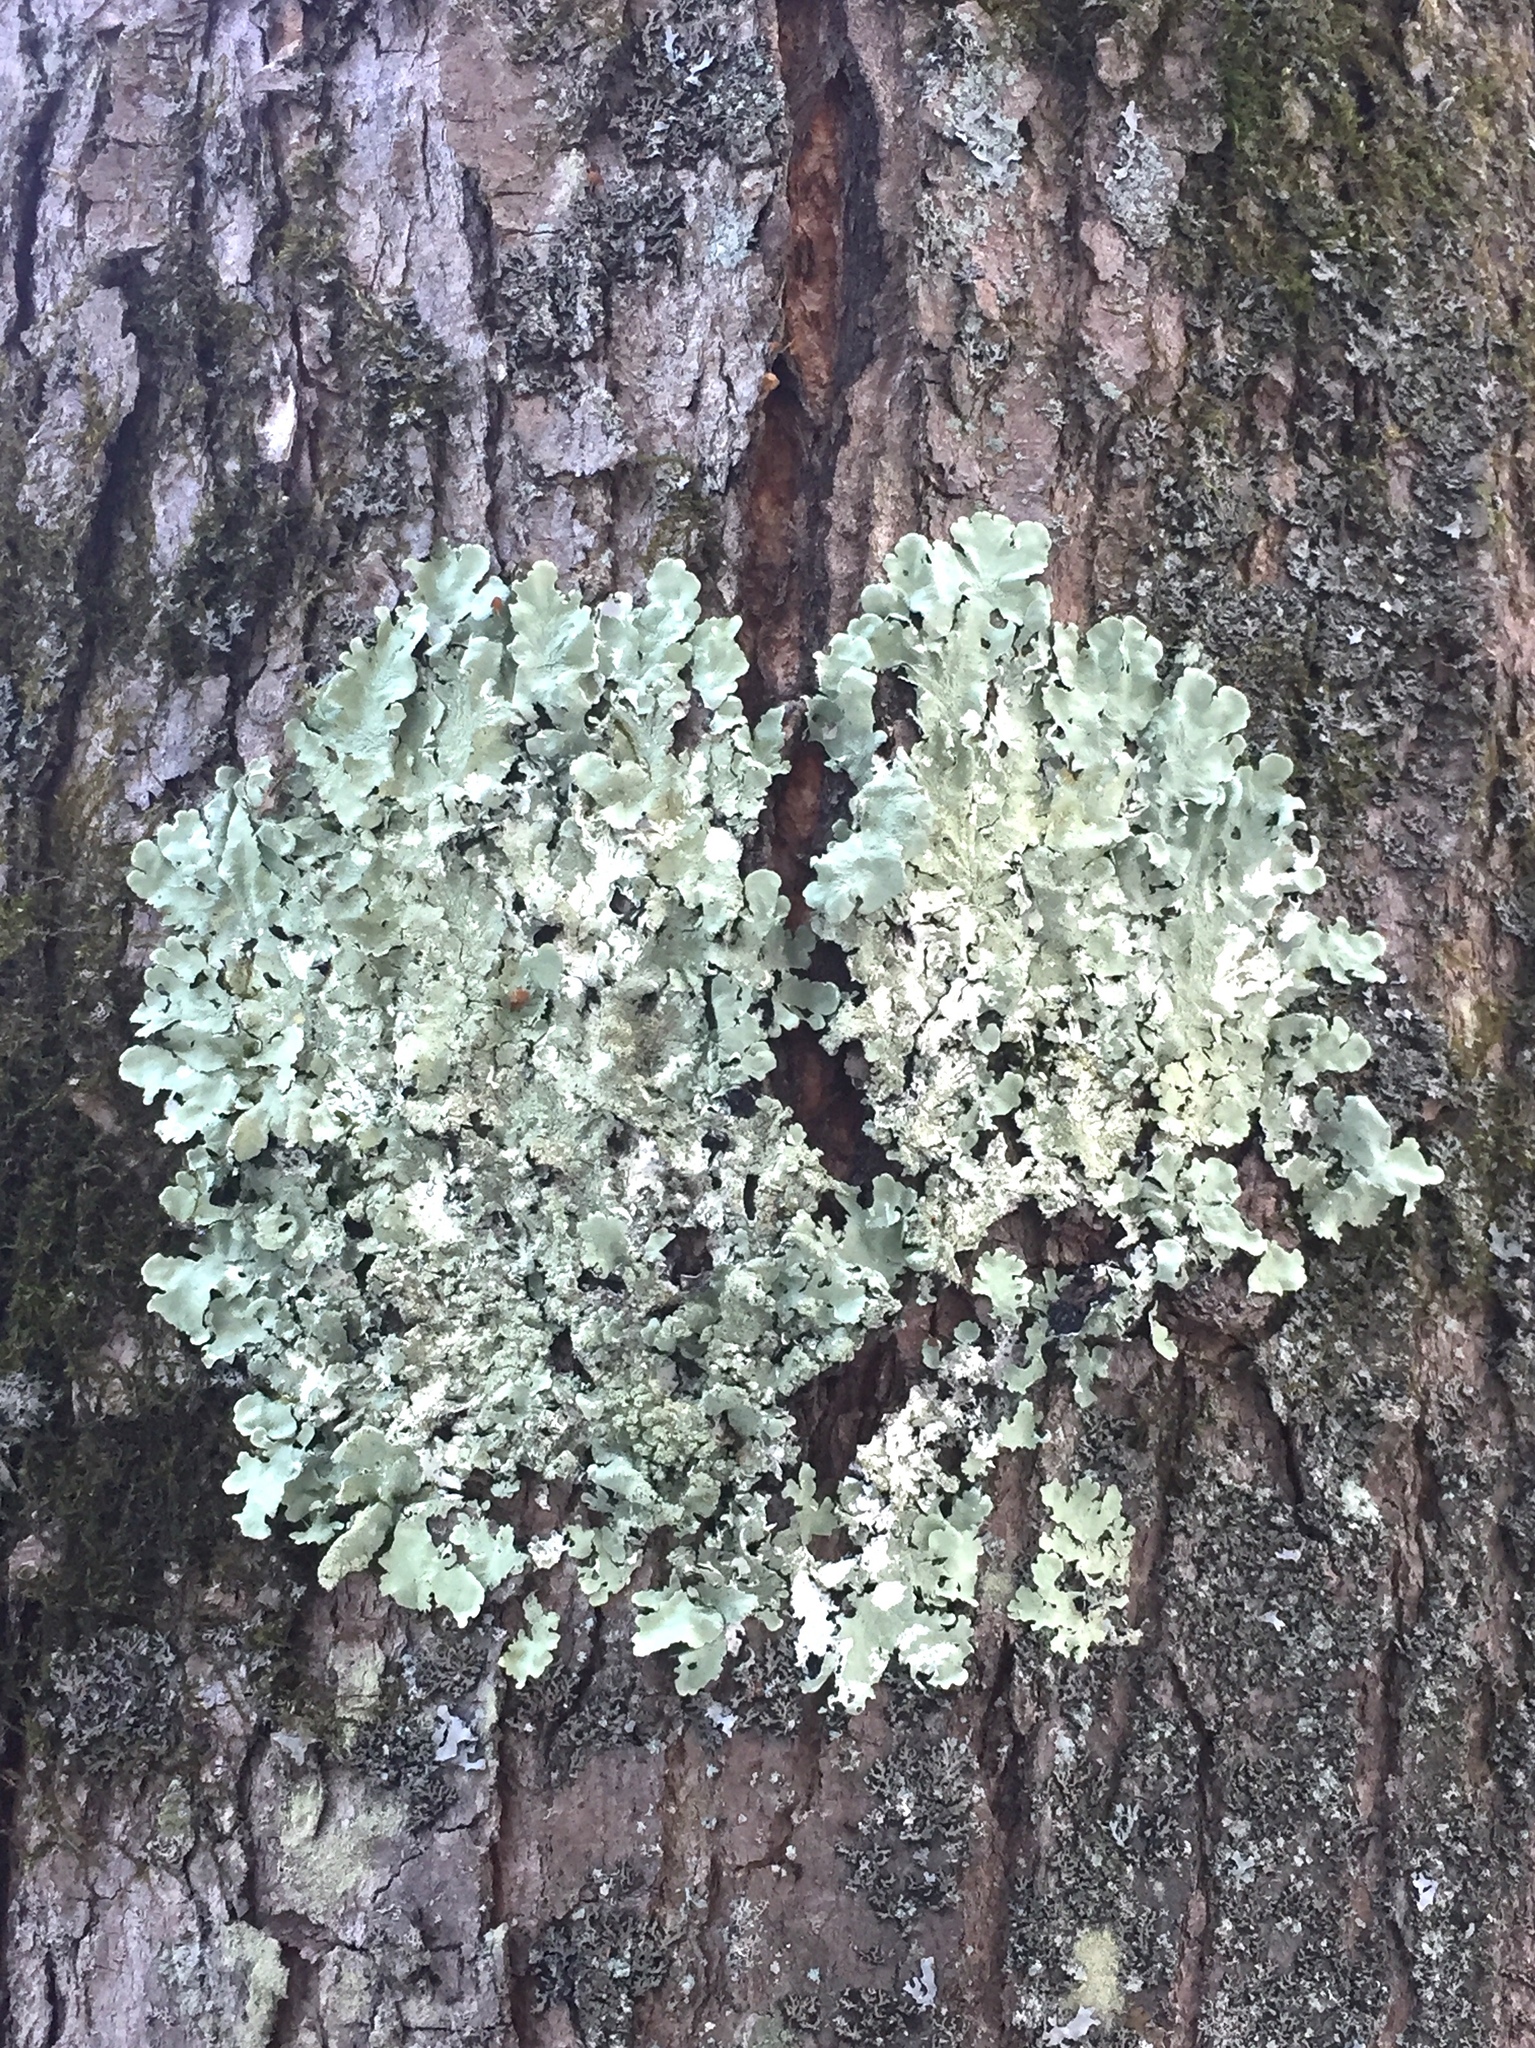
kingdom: Fungi
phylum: Ascomycota
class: Lecanoromycetes
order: Lecanorales
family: Parmeliaceae
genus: Flavoparmelia
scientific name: Flavoparmelia caperata
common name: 40-mile per hour lichen
